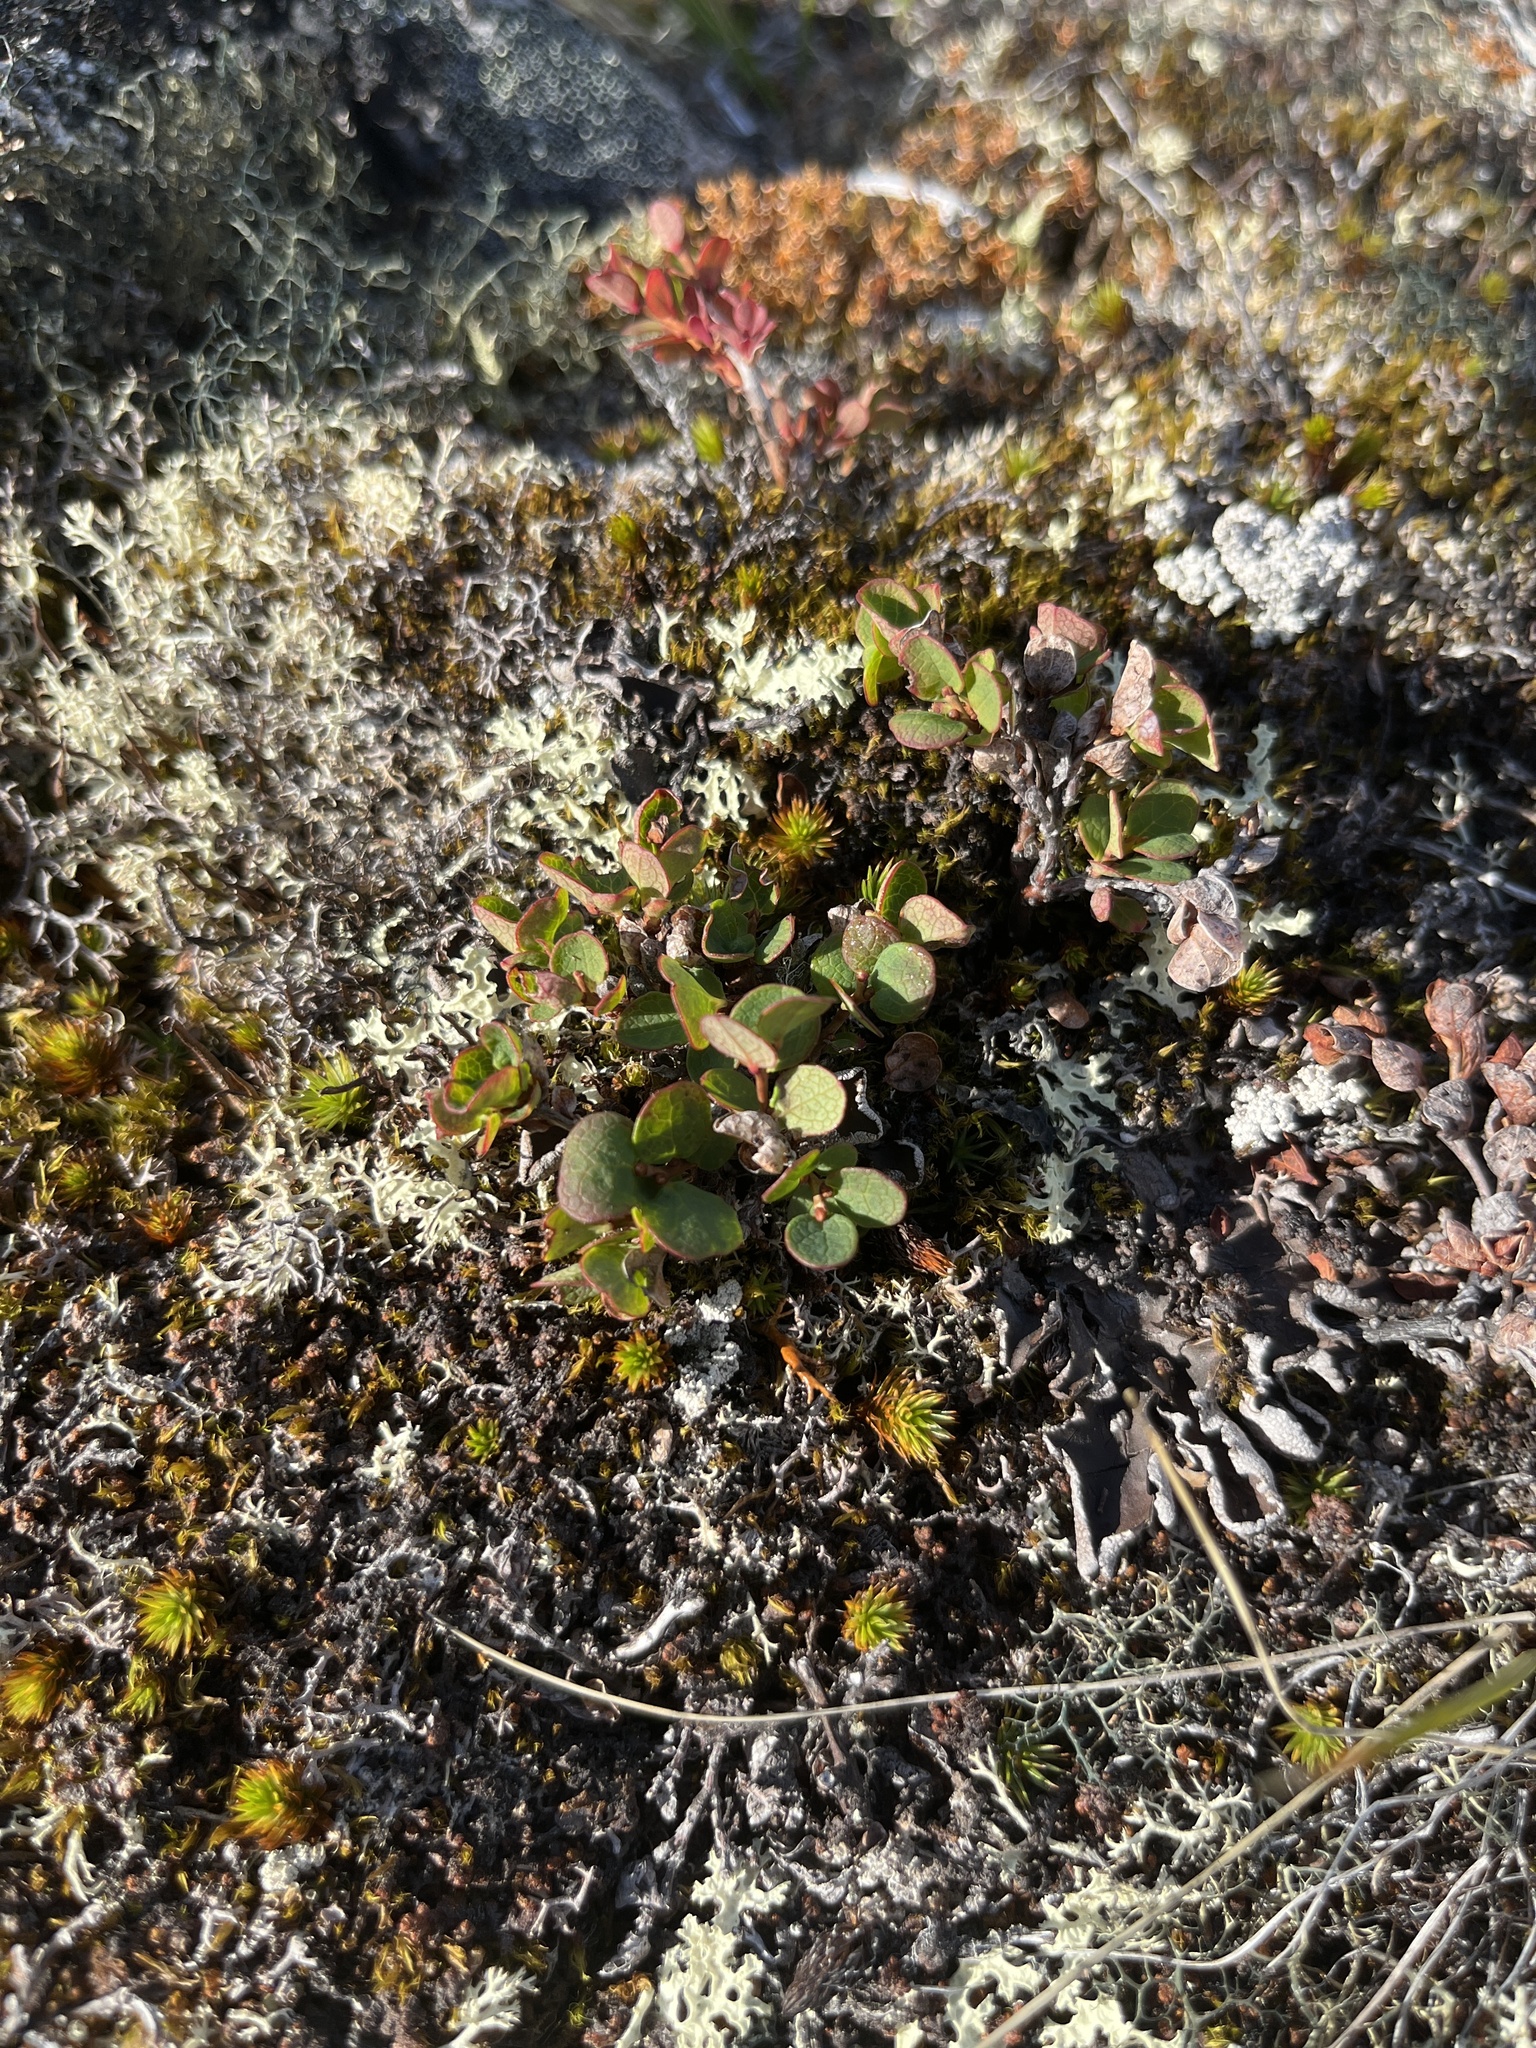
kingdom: Plantae
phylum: Tracheophyta
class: Magnoliopsida
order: Ericales
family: Ericaceae
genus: Vaccinium
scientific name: Vaccinium uliginosum
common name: Bog bilberry
